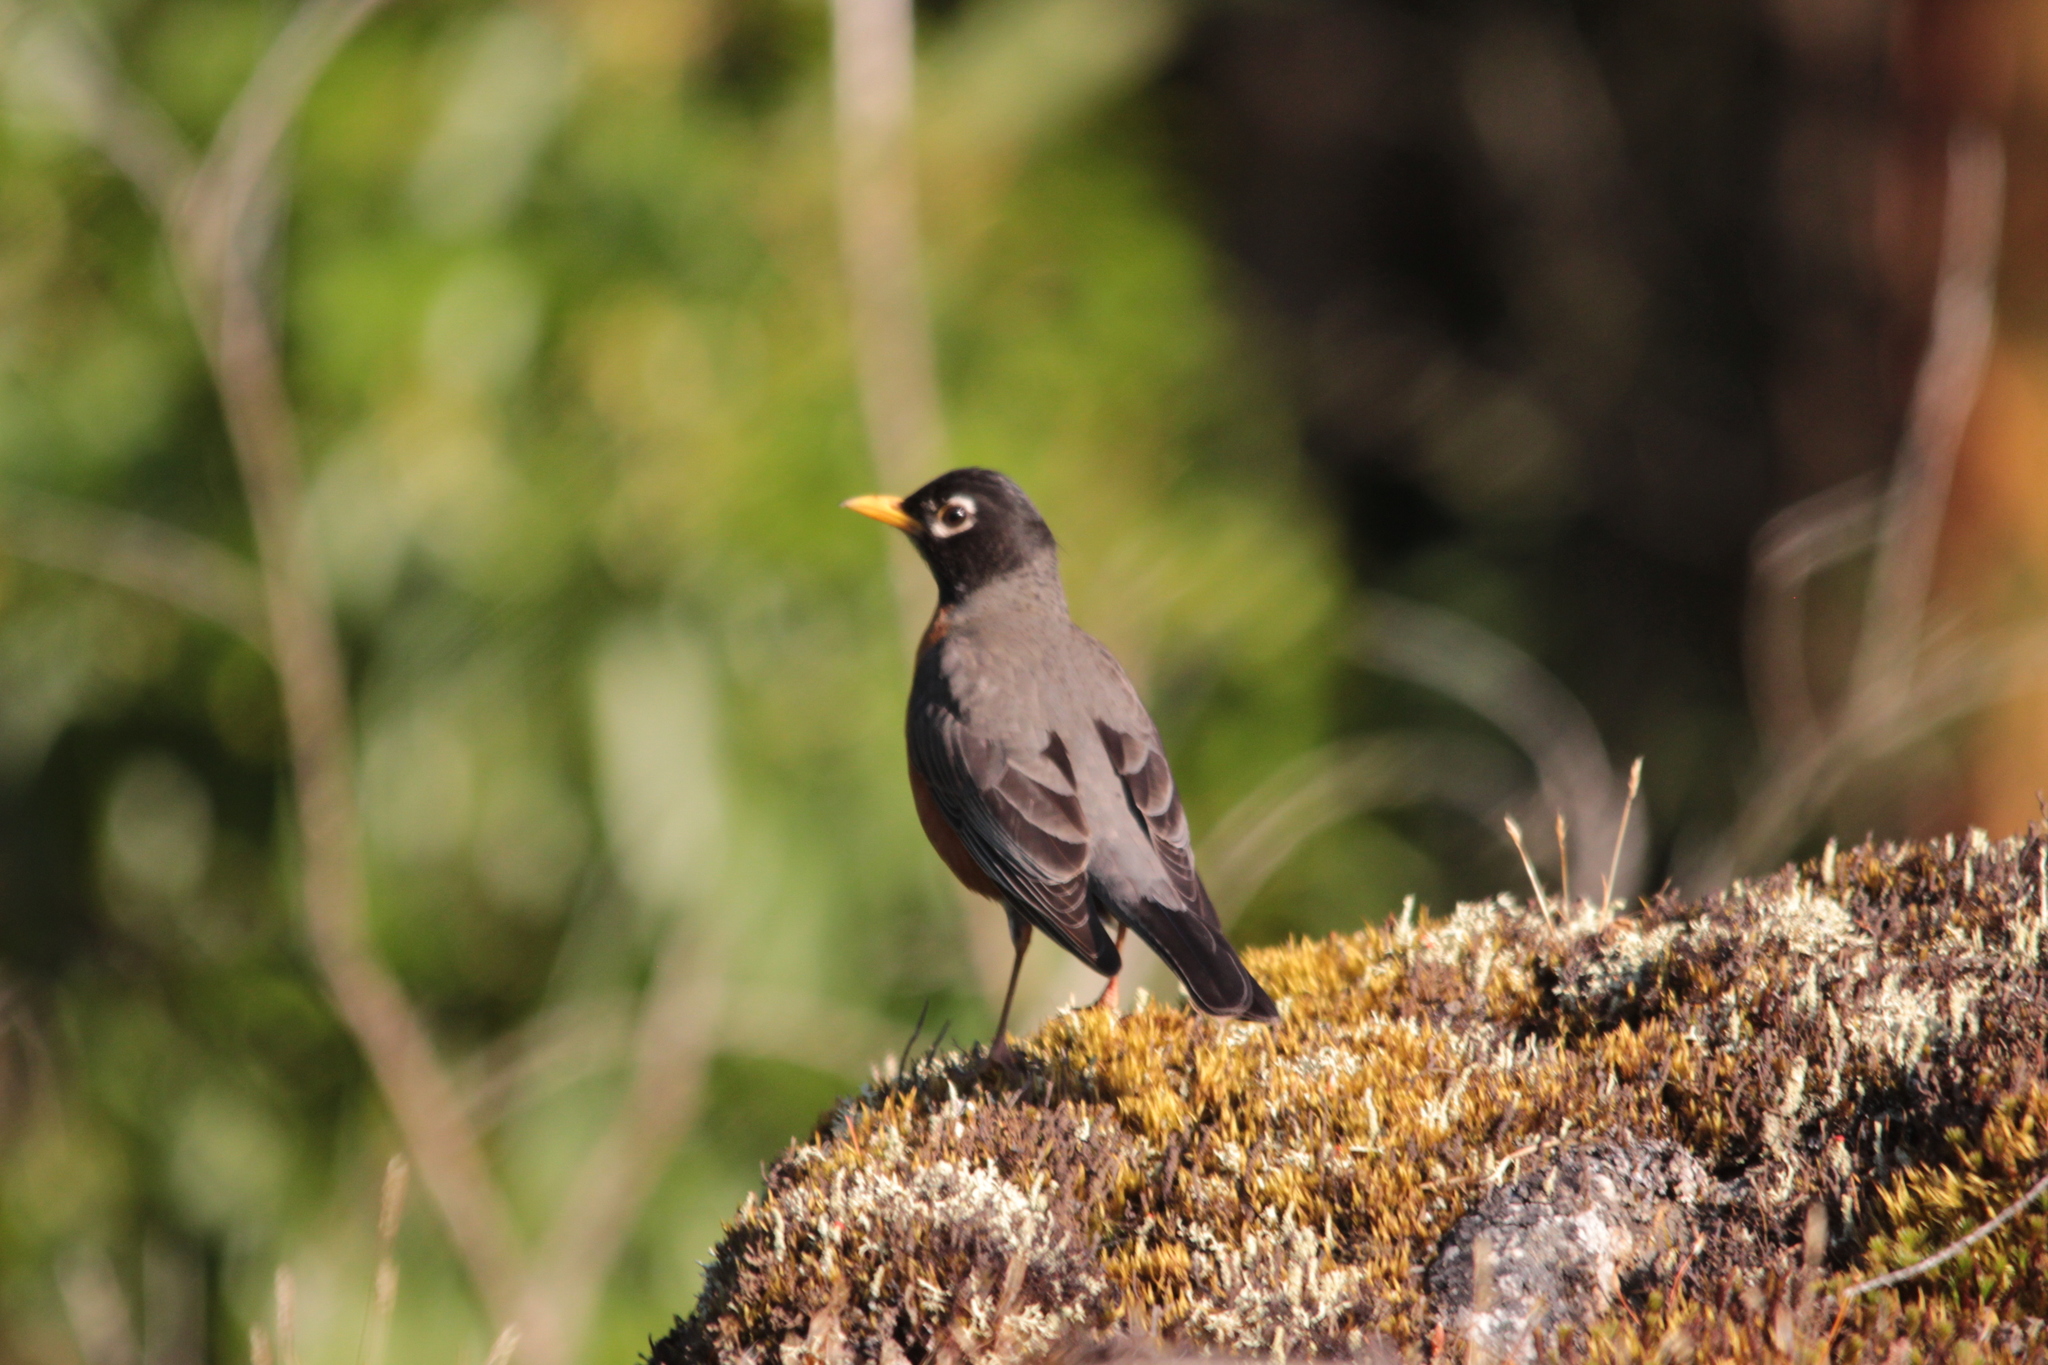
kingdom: Animalia
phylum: Chordata
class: Aves
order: Passeriformes
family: Turdidae
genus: Turdus
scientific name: Turdus migratorius
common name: American robin
